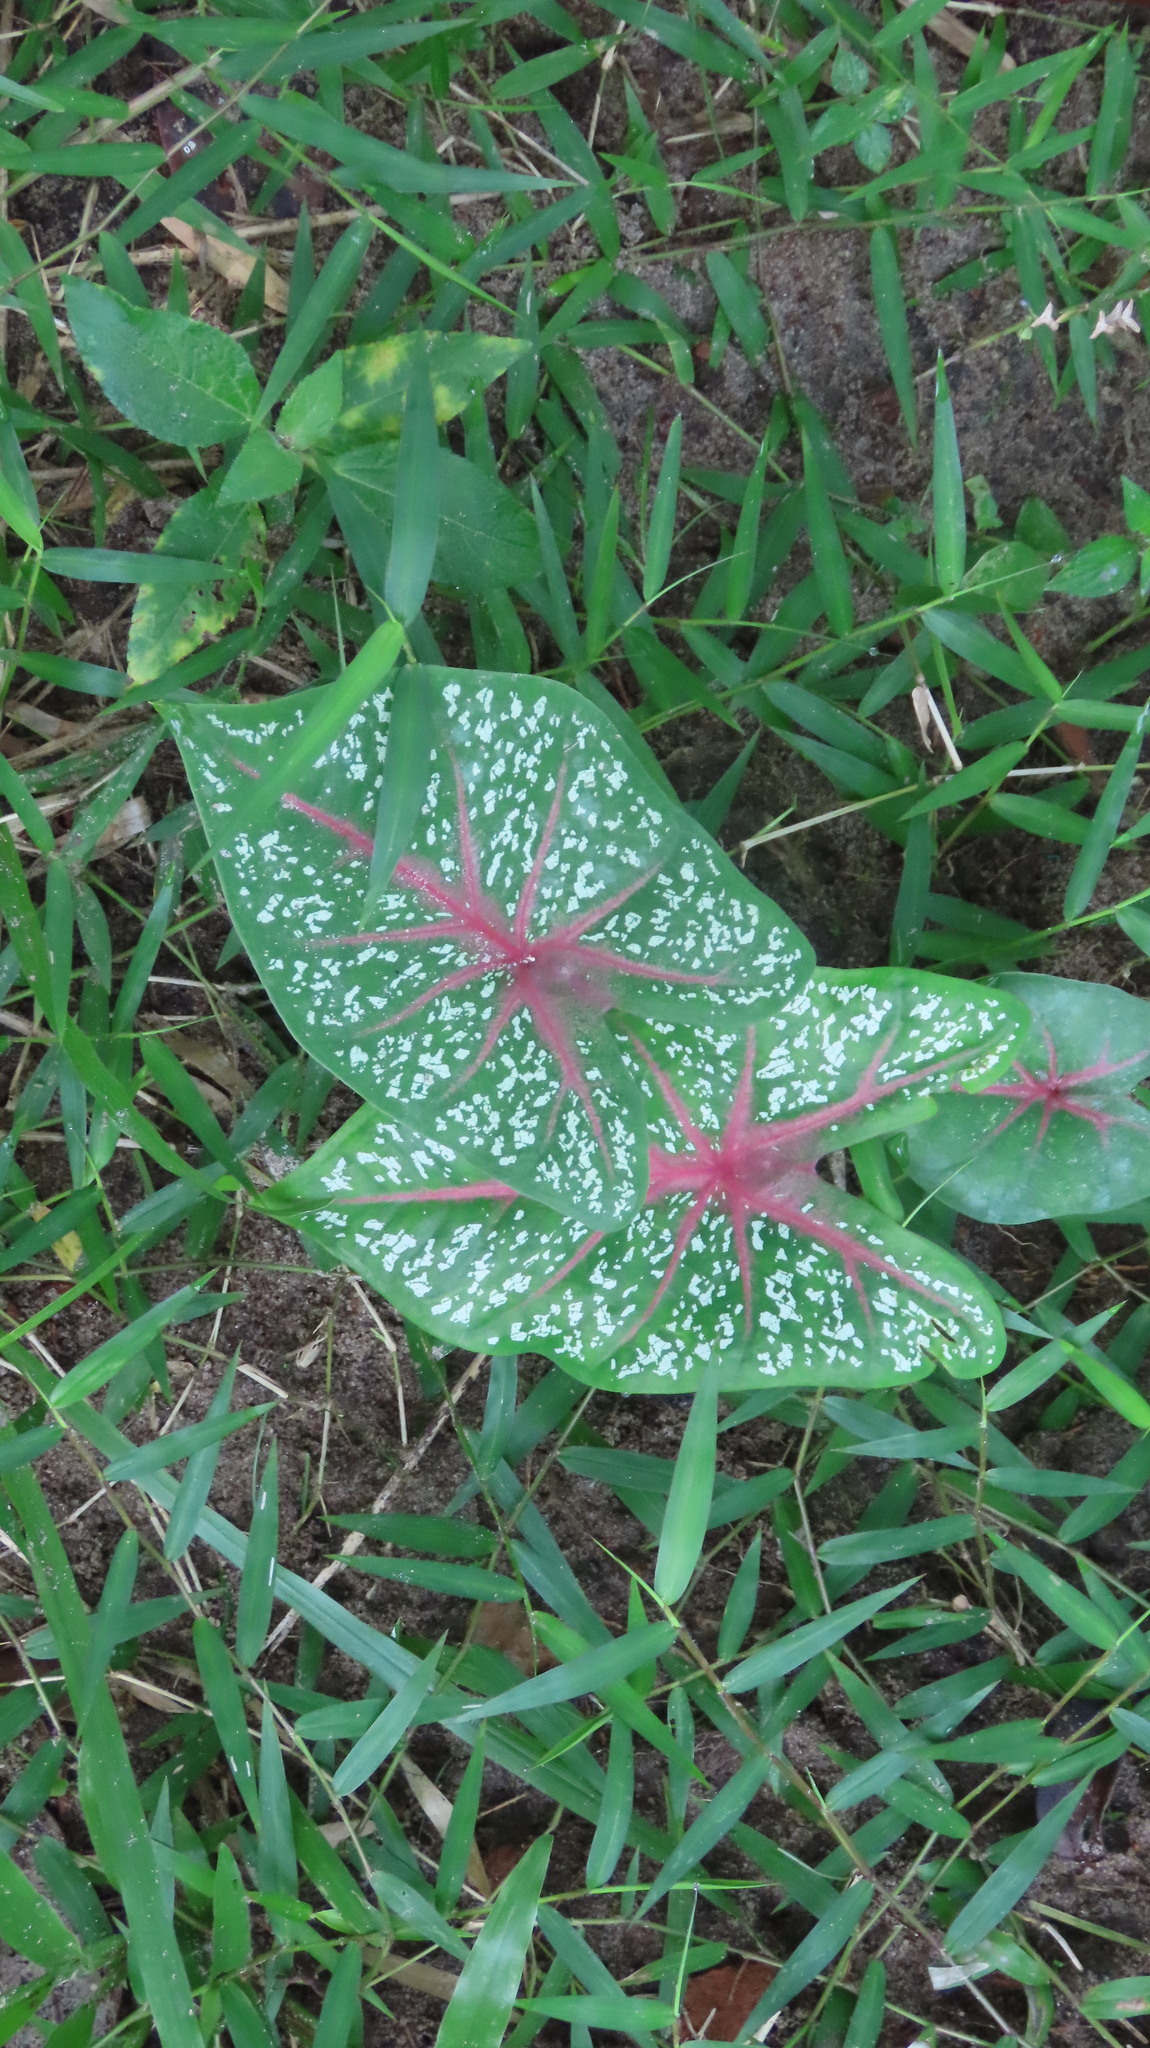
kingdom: Plantae
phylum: Tracheophyta
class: Liliopsida
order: Alismatales
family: Araceae
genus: Caladium
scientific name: Caladium bicolor
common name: Artist's pallet
